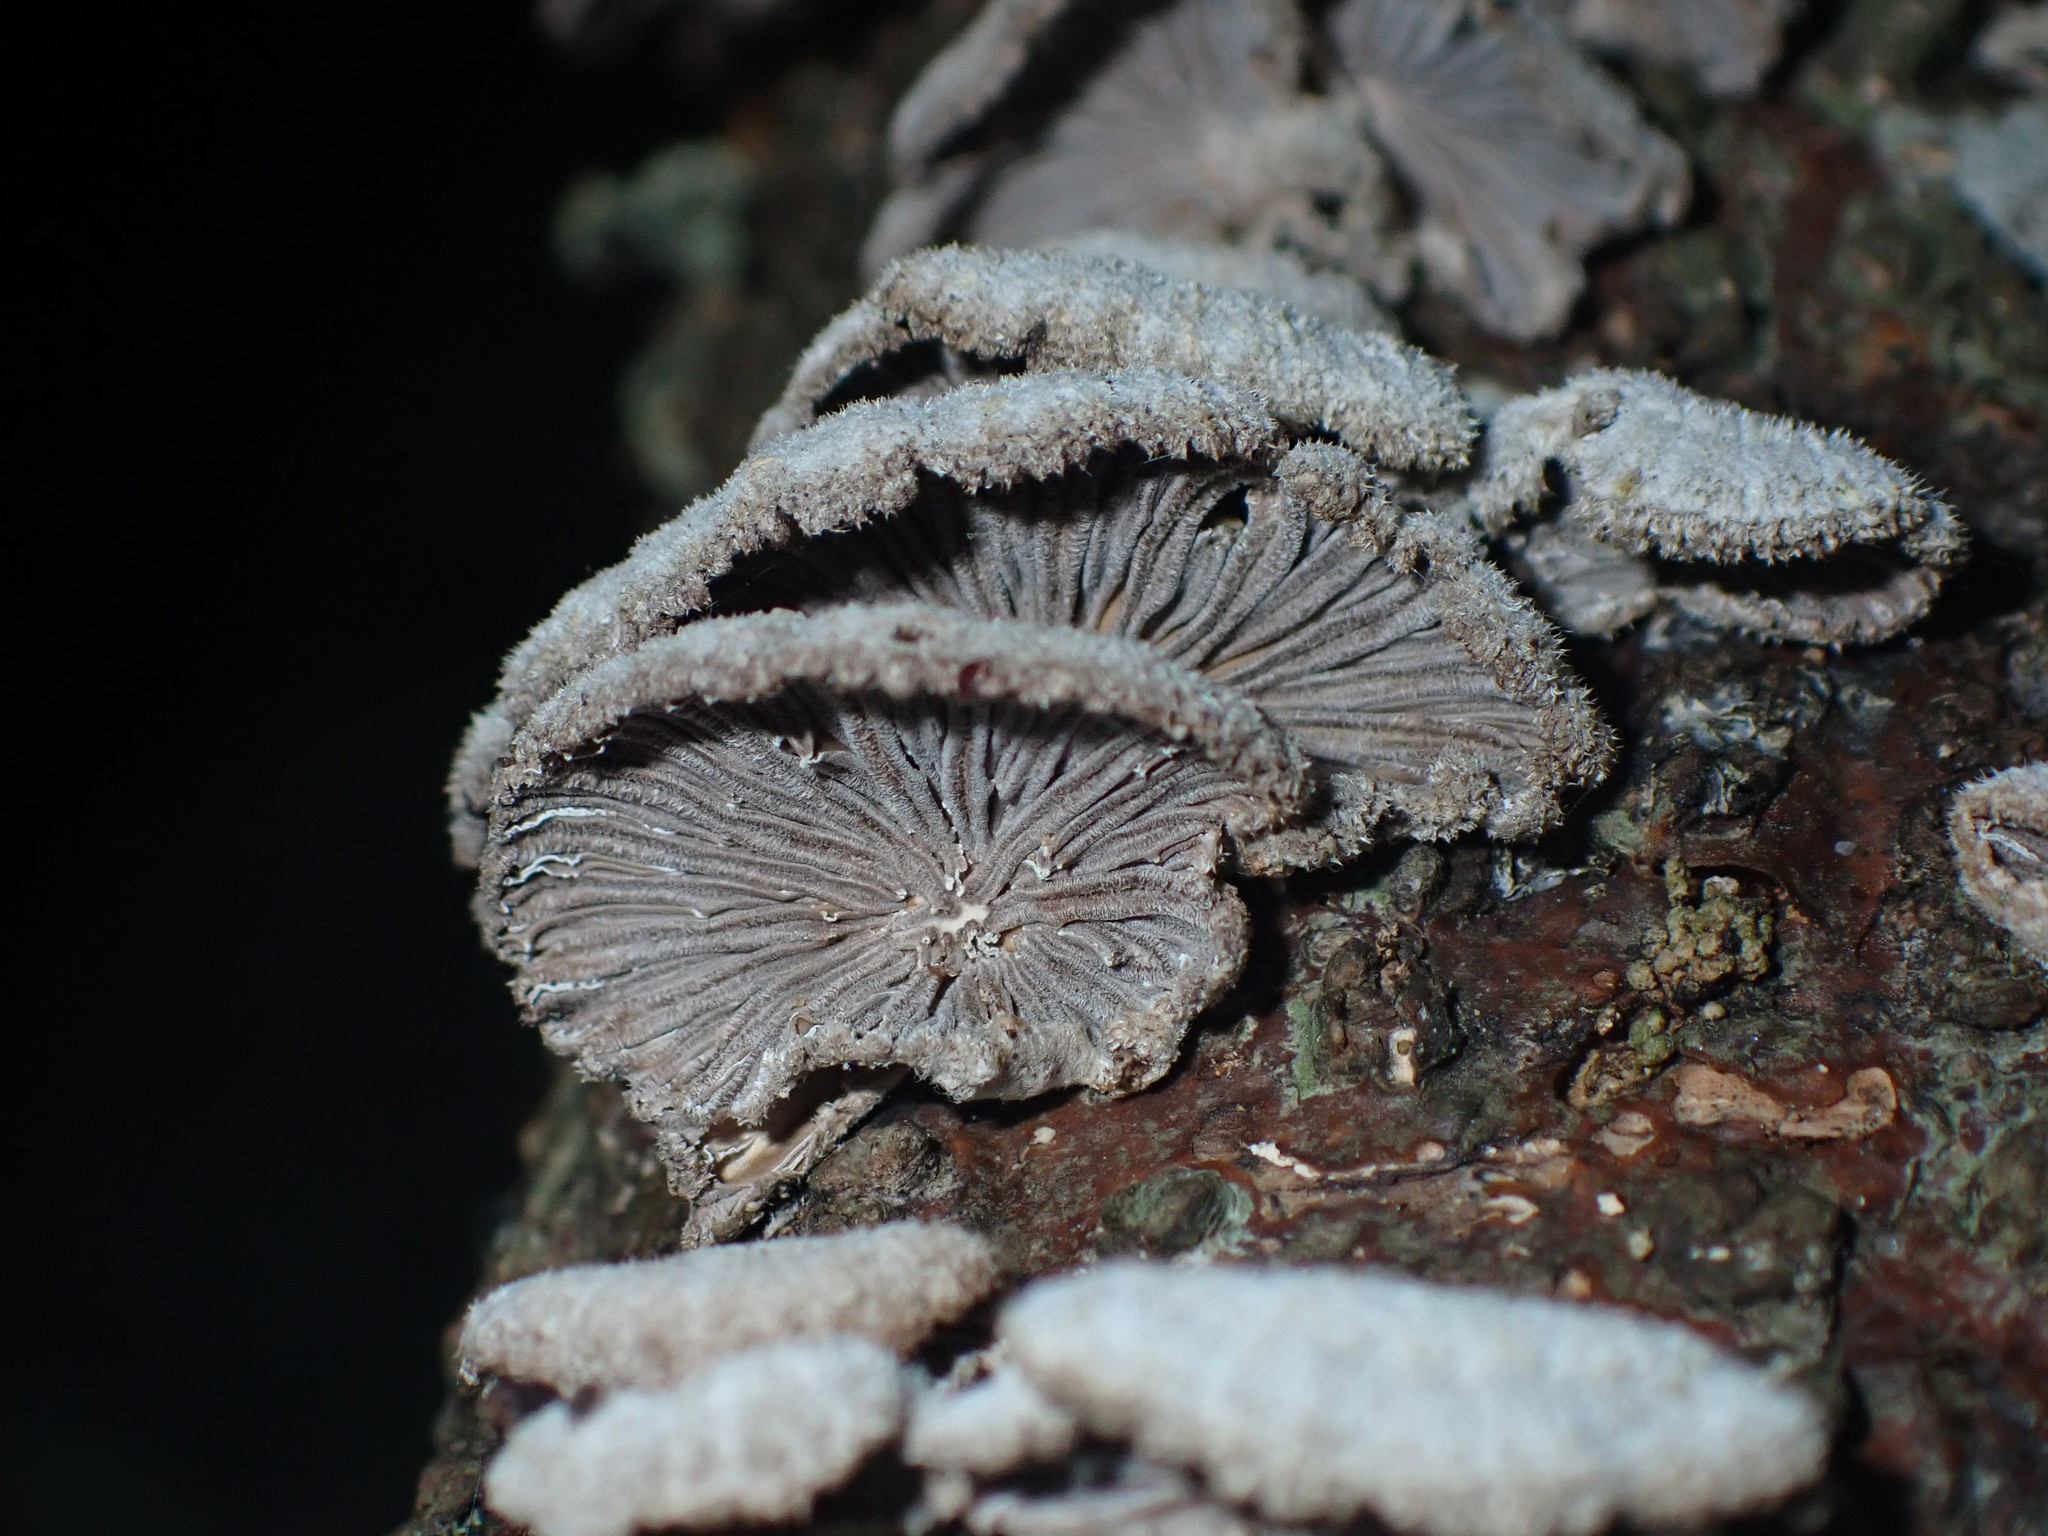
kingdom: Fungi
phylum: Basidiomycota
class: Agaricomycetes
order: Agaricales
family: Schizophyllaceae
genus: Schizophyllum
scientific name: Schizophyllum commune
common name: Common porecrust
